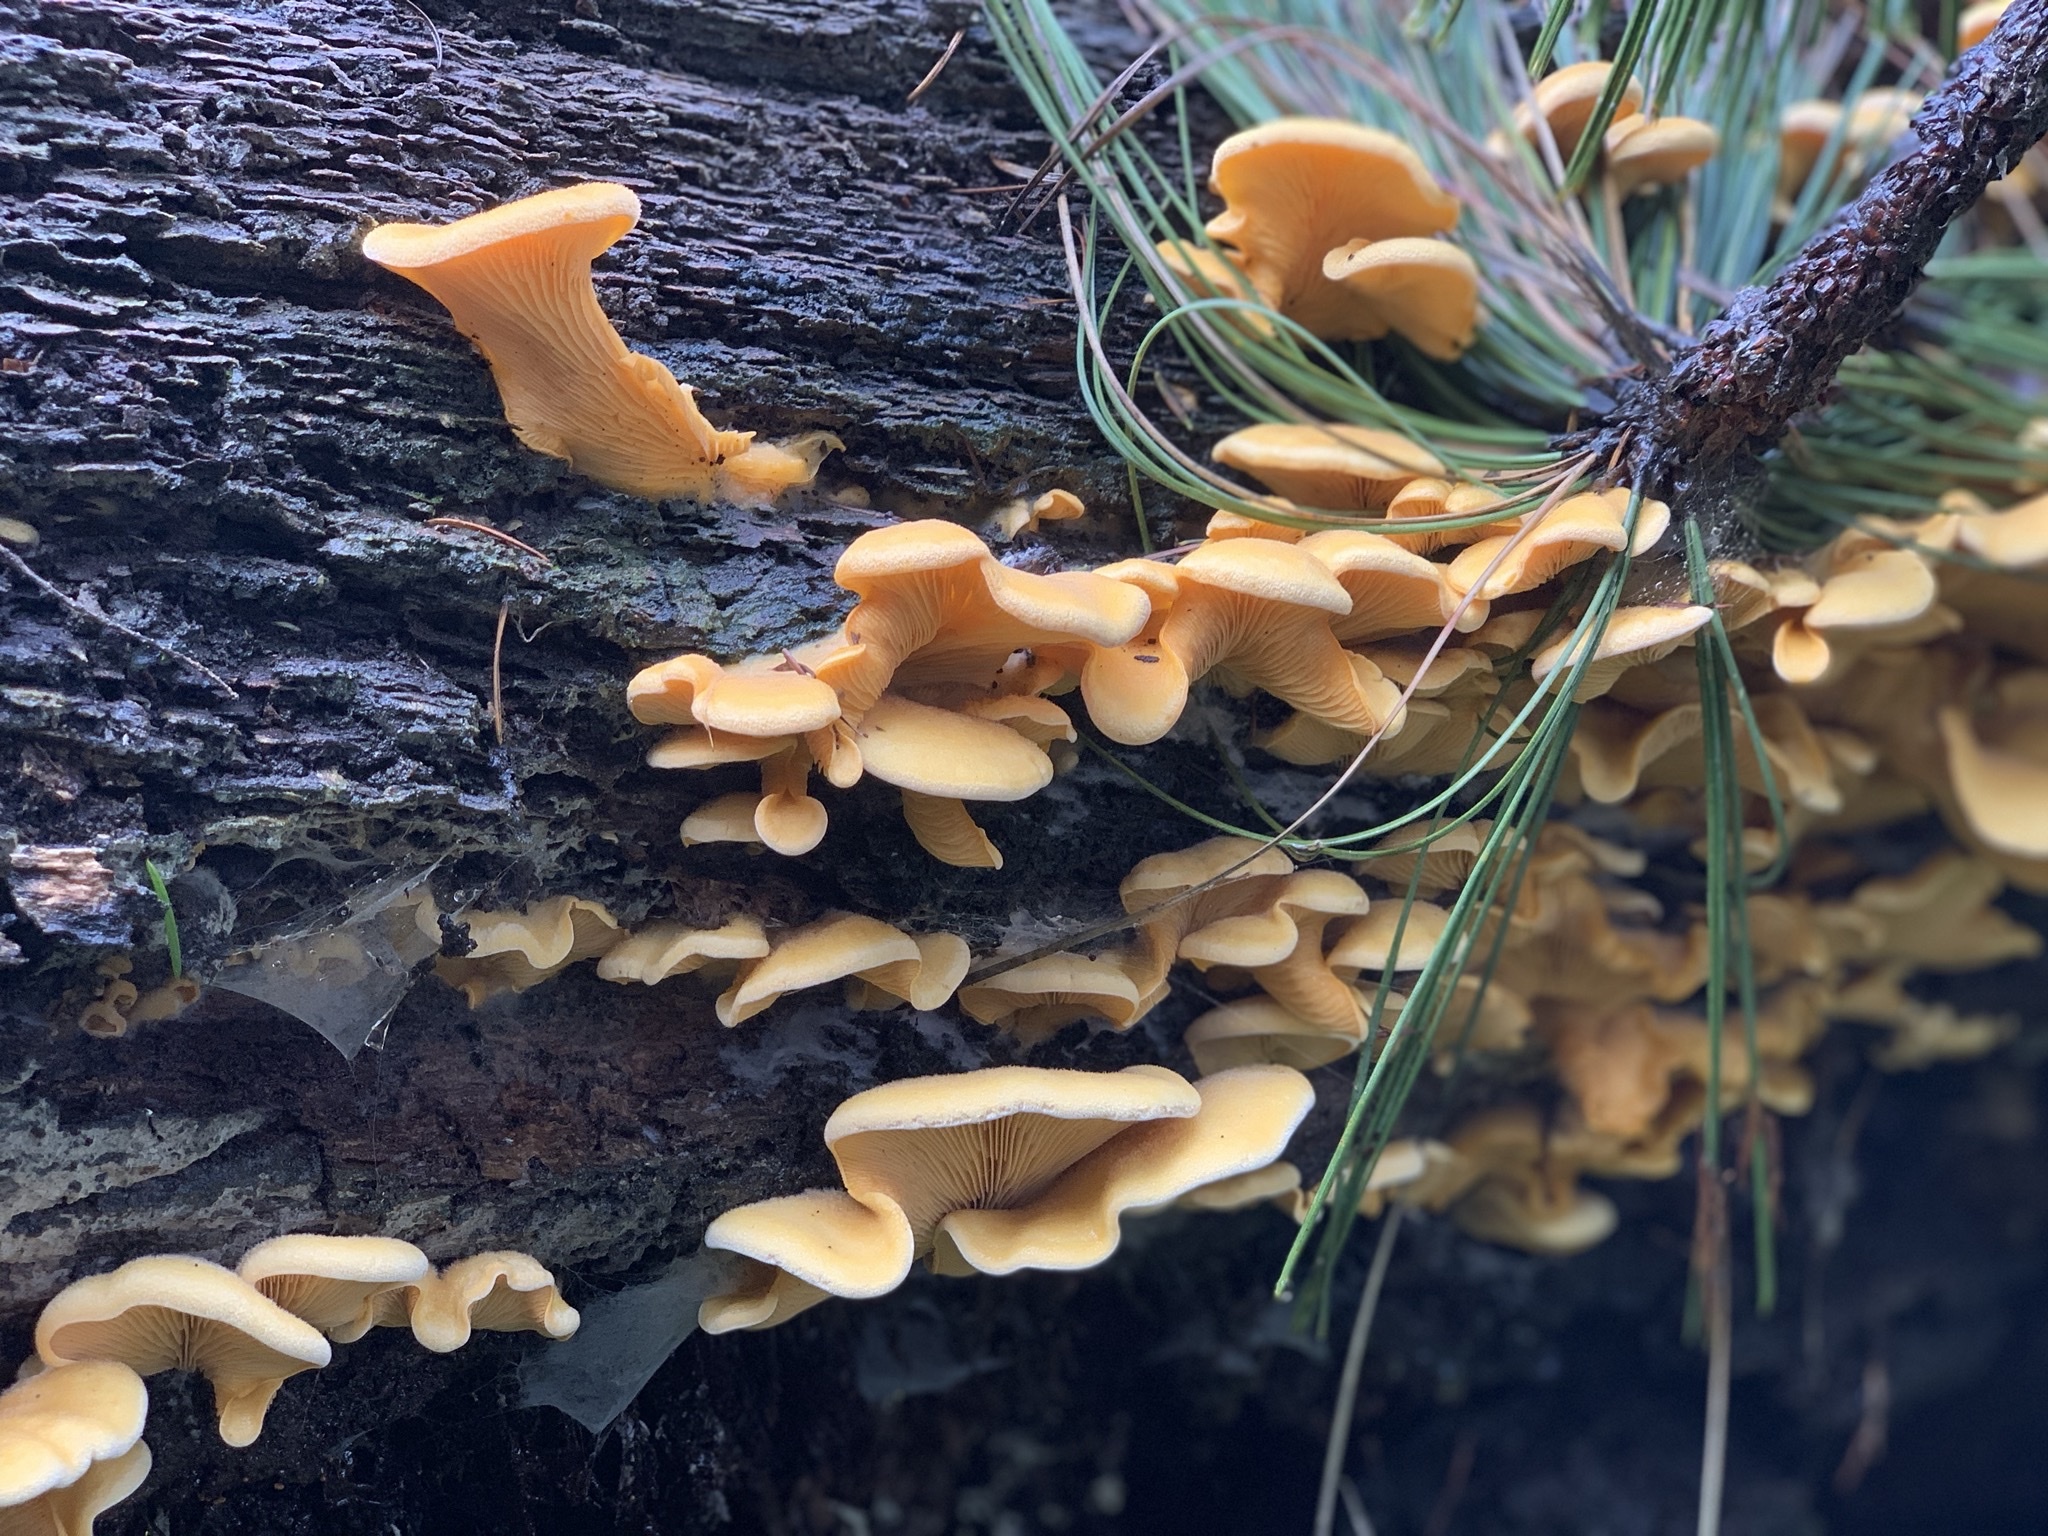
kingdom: Fungi
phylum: Basidiomycota
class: Agaricomycetes
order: Agaricales
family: Phyllotopsidaceae
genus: Phyllotopsis
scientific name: Phyllotopsis nidulans
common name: Orange mock oyster
